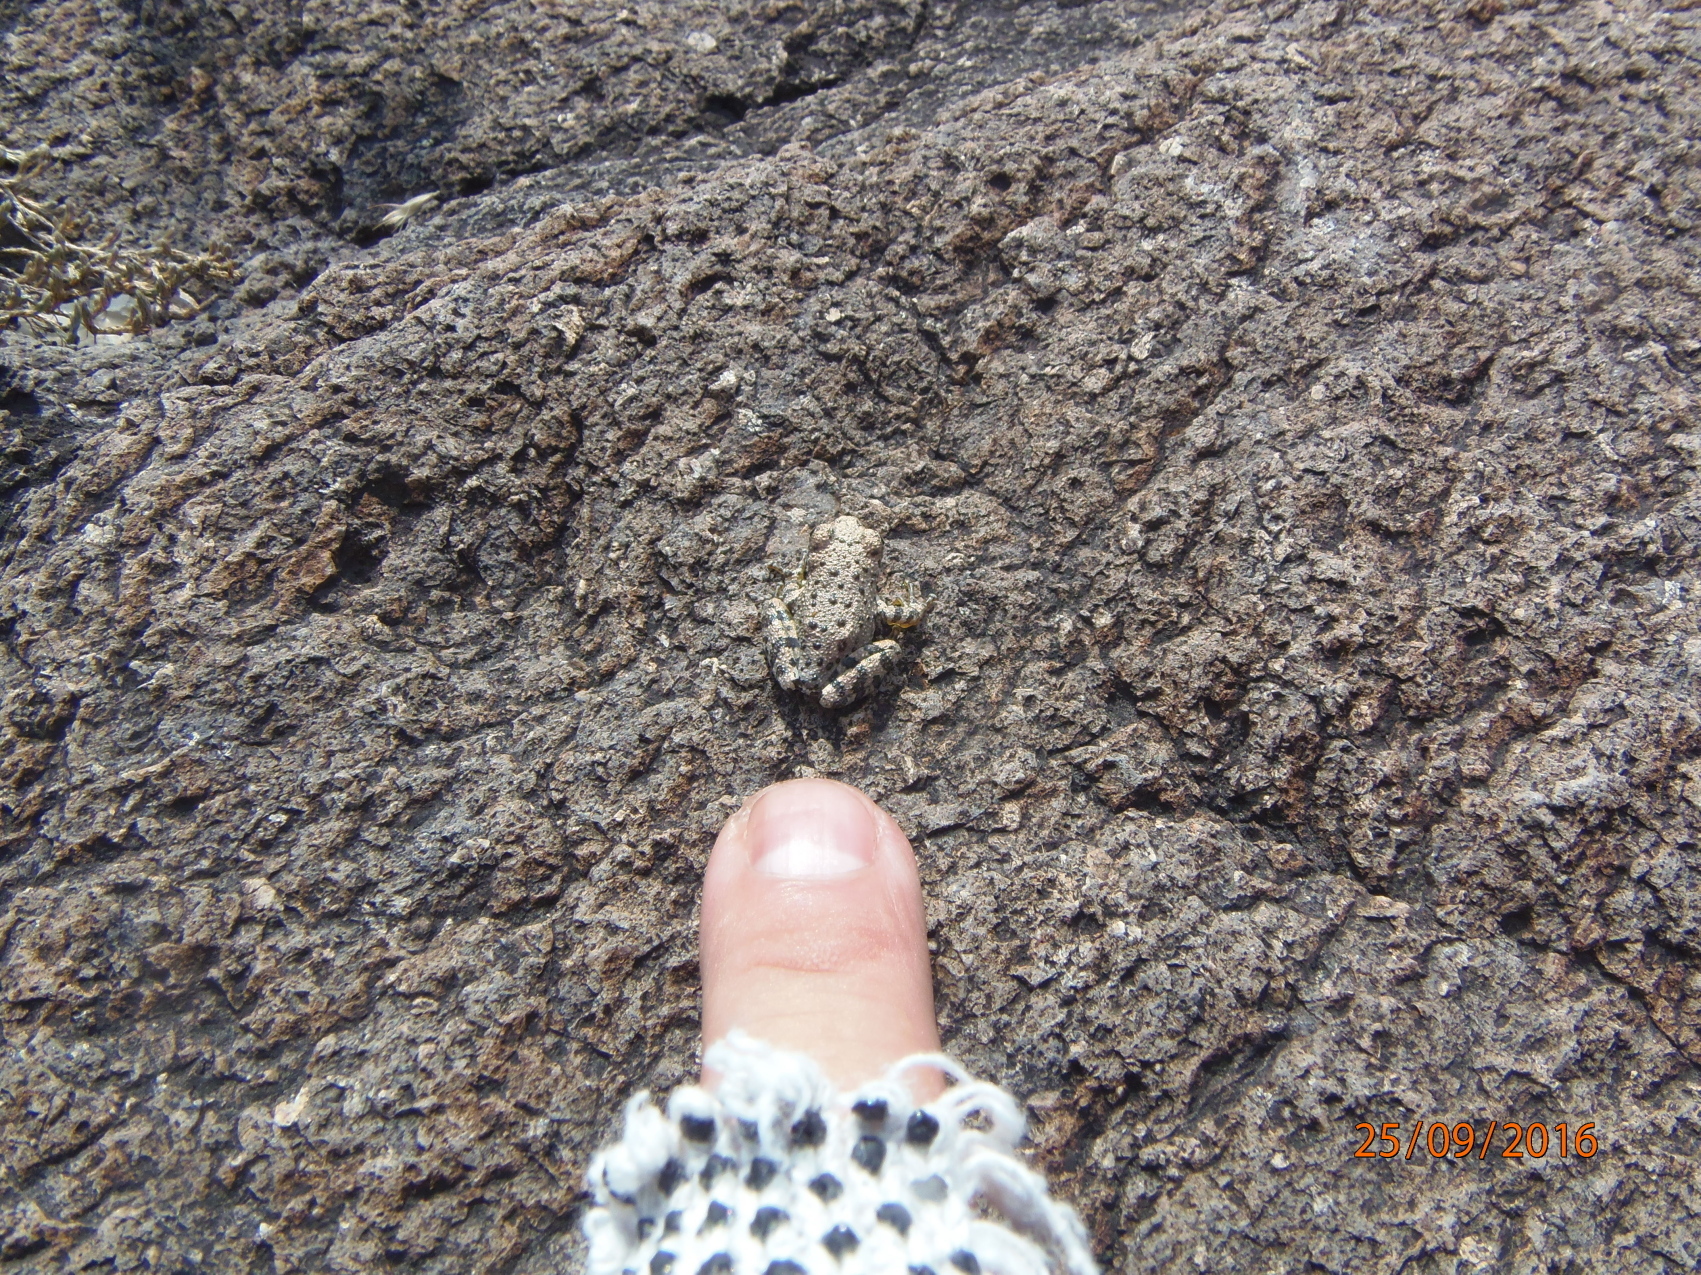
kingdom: Animalia
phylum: Chordata
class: Amphibia
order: Anura
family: Hylidae
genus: Dryophytes
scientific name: Dryophytes arenicolor
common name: Canyon treefrog
